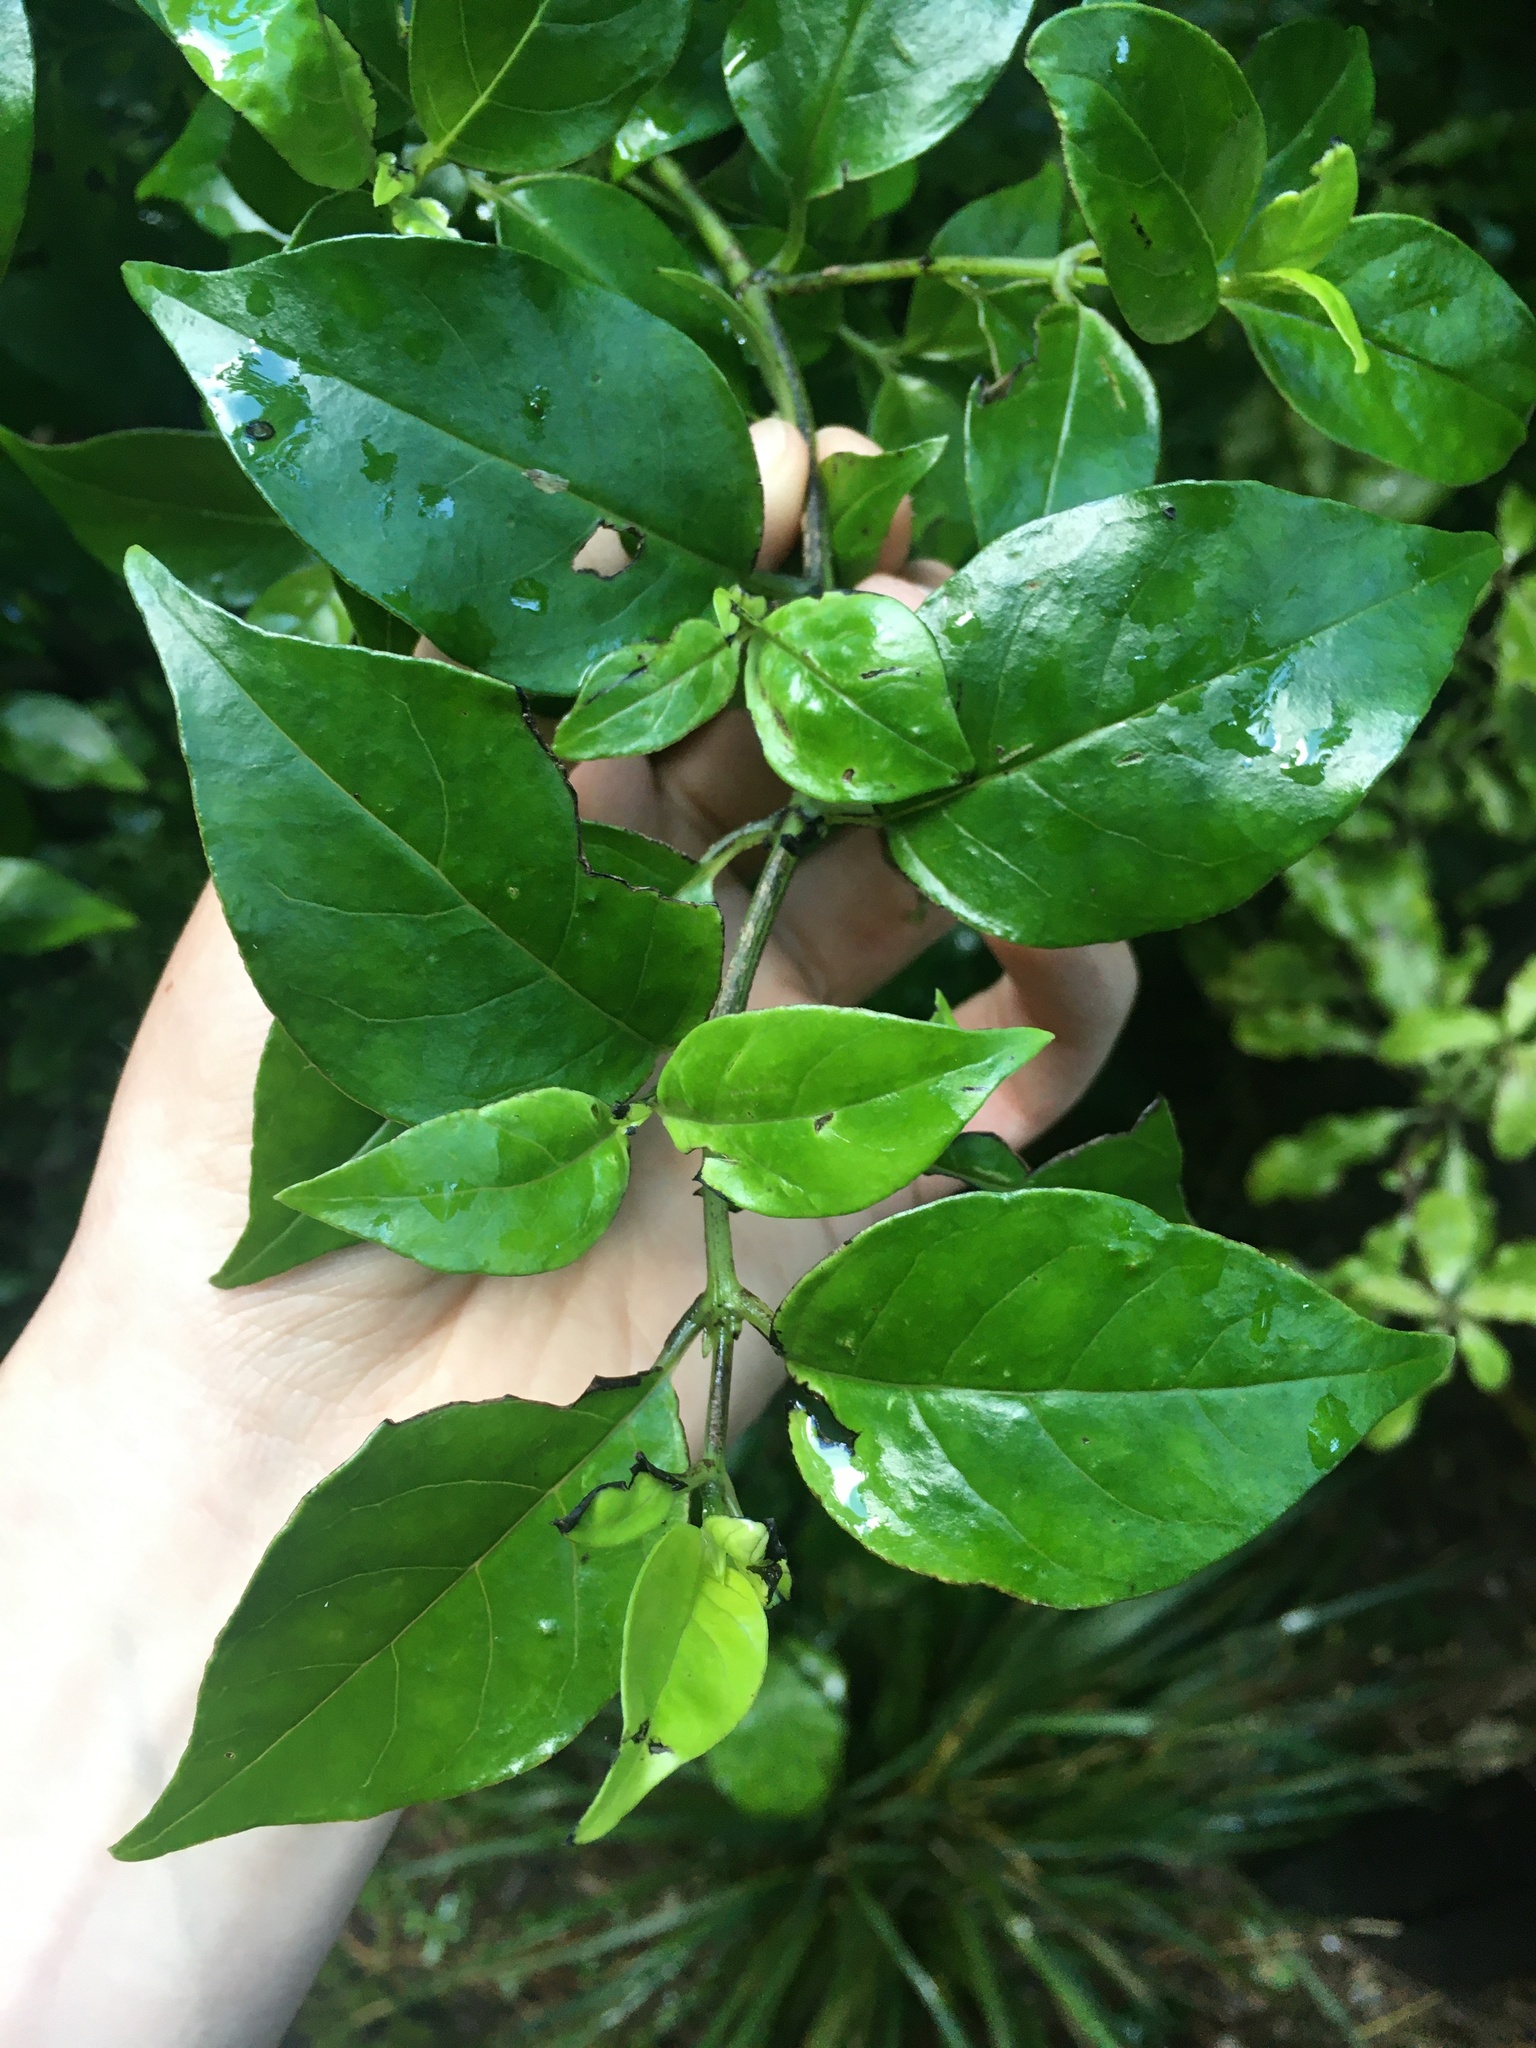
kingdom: Plantae
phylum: Tracheophyta
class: Magnoliopsida
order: Gentianales
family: Loganiaceae
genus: Geniostoma
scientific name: Geniostoma ligustrifolium
